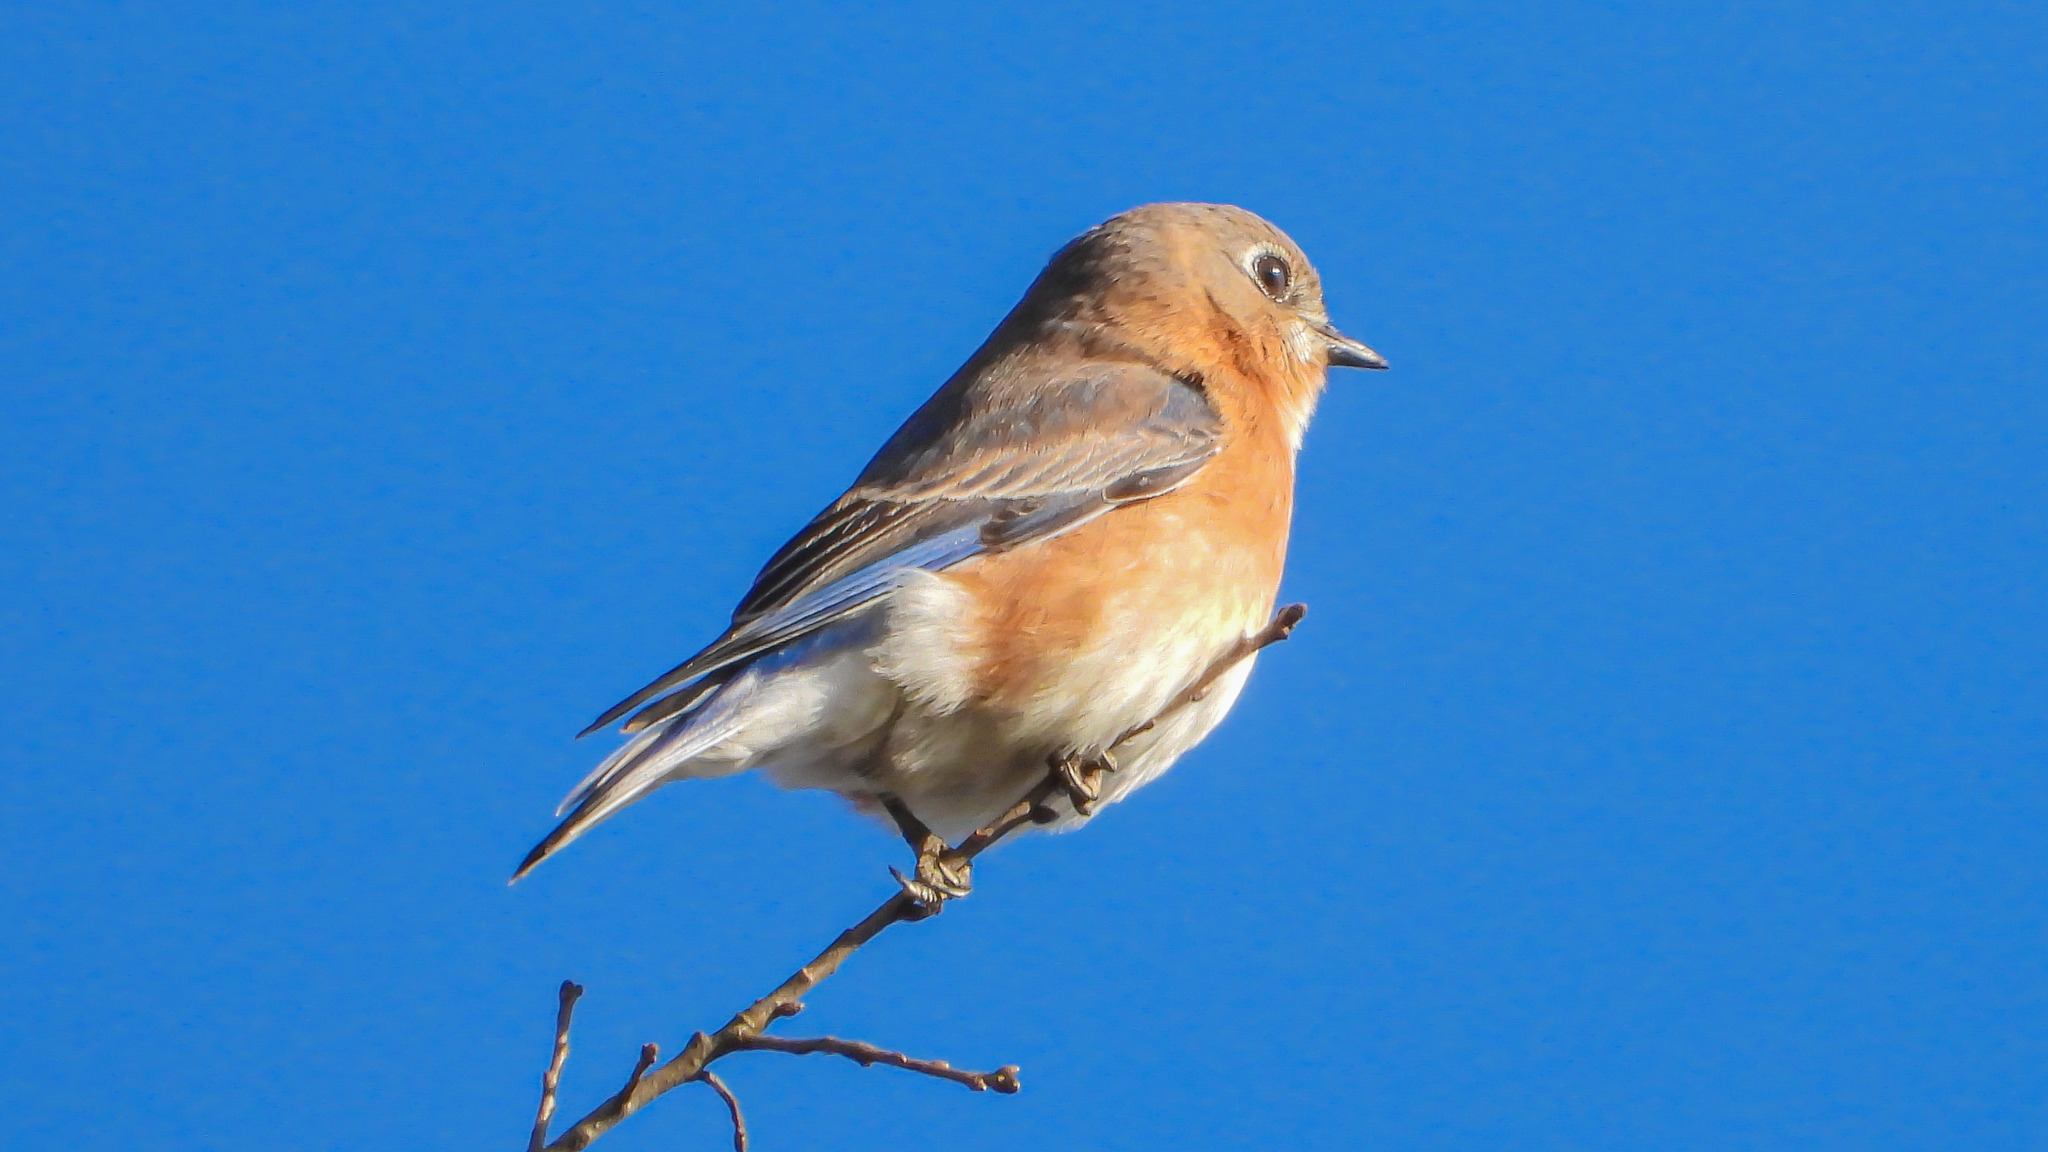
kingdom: Animalia
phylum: Chordata
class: Aves
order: Passeriformes
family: Turdidae
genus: Sialia
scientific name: Sialia sialis
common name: Eastern bluebird
